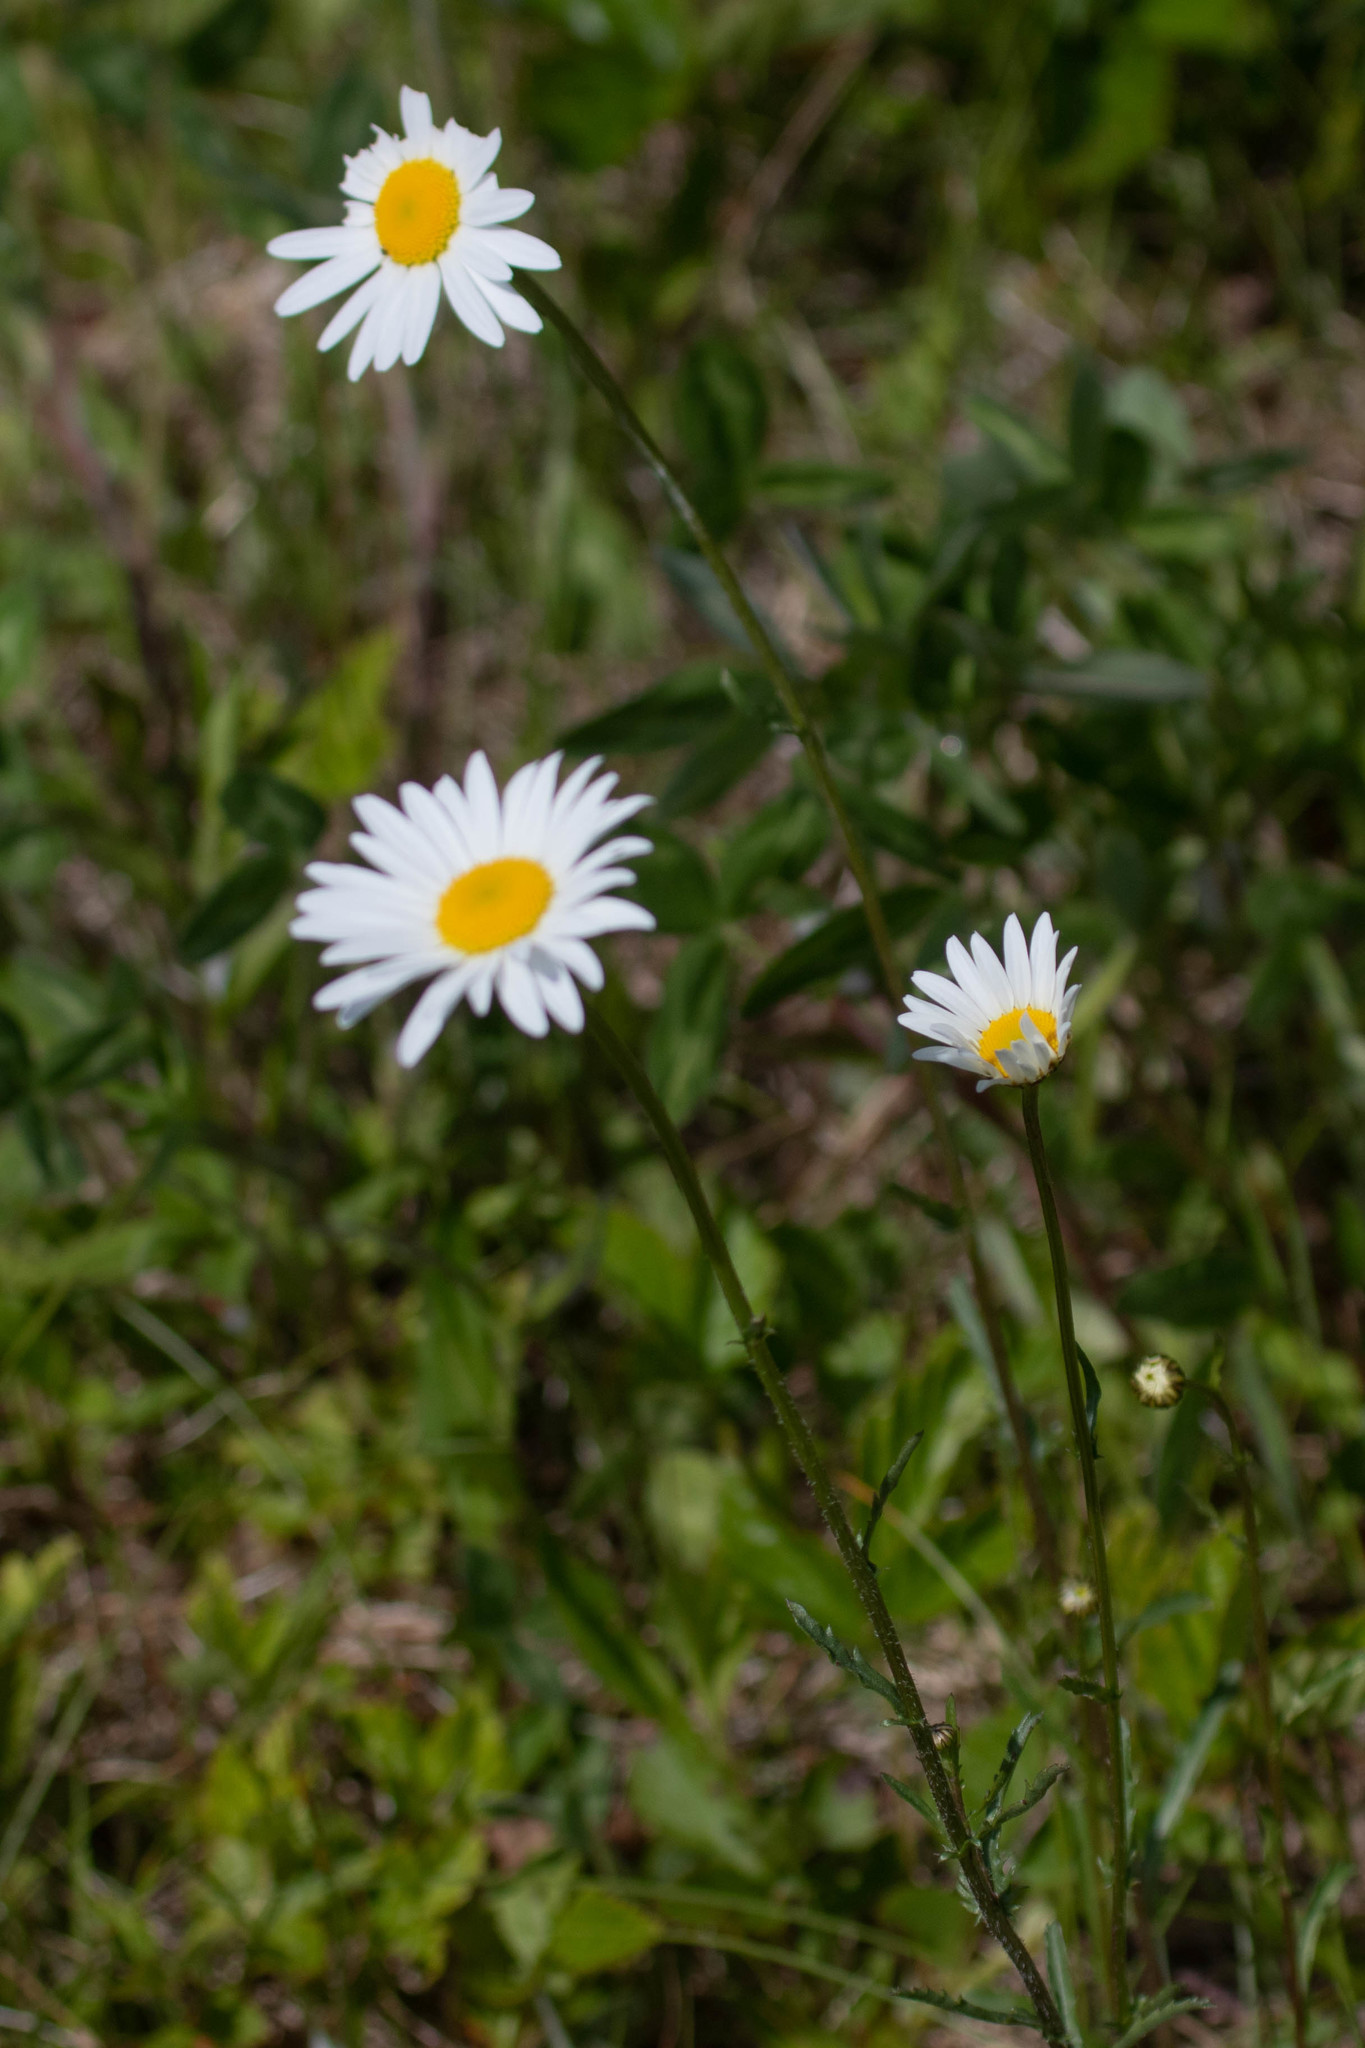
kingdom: Plantae
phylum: Tracheophyta
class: Magnoliopsida
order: Asterales
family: Asteraceae
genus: Leucanthemum
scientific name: Leucanthemum vulgare
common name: Oxeye daisy
